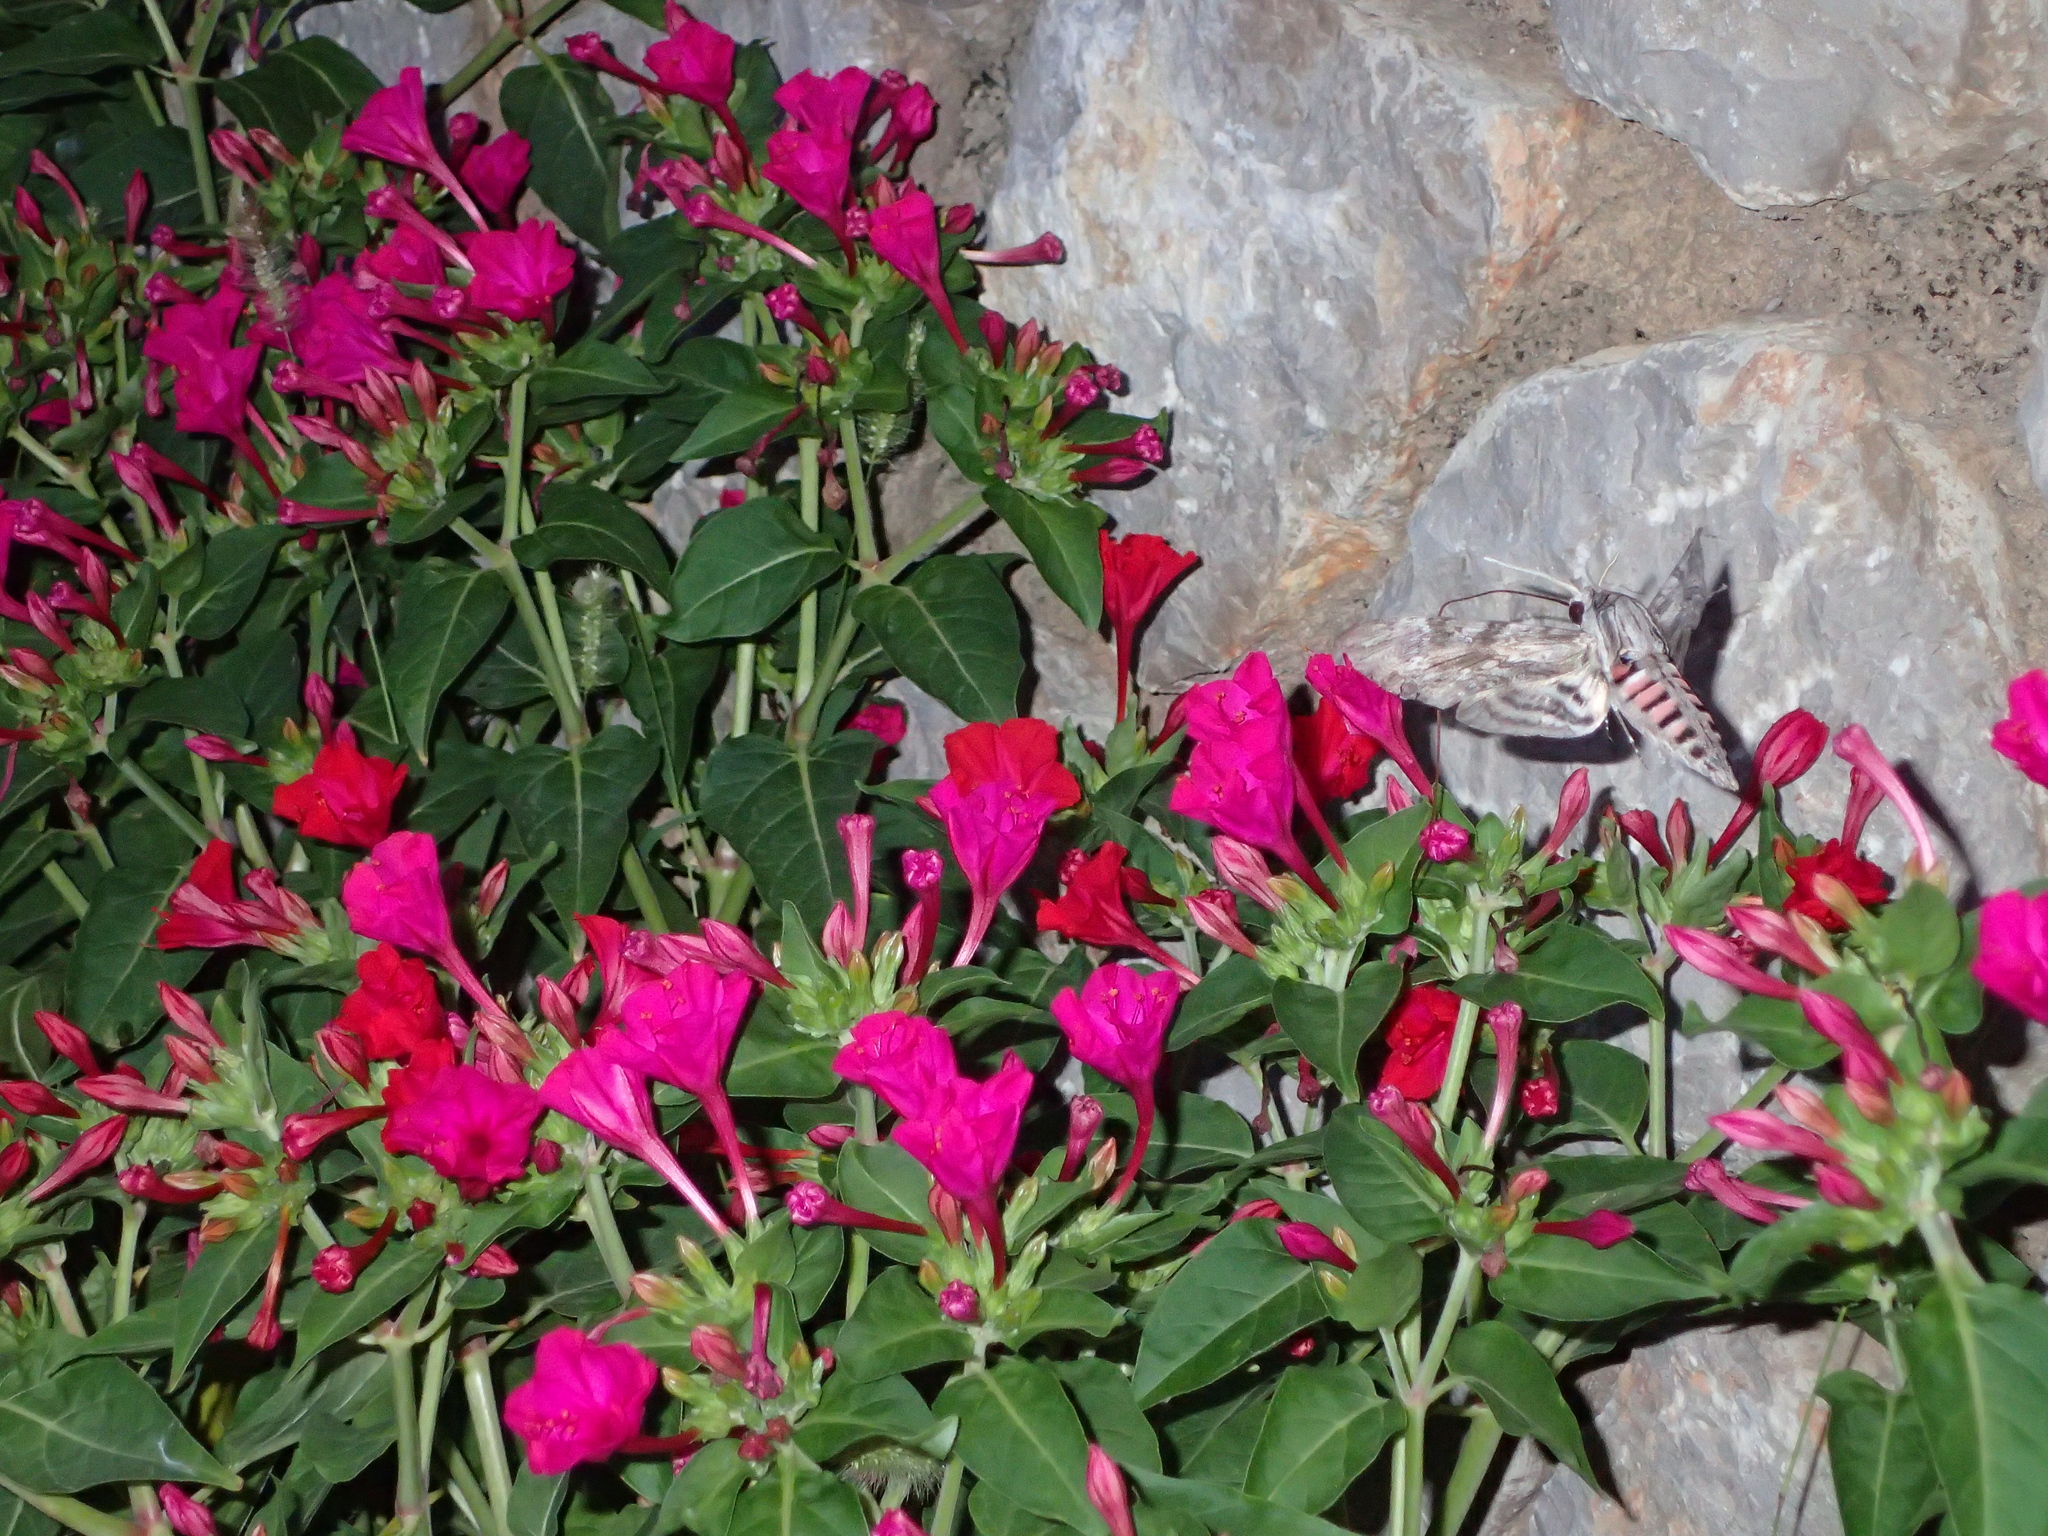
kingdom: Animalia
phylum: Arthropoda
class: Insecta
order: Lepidoptera
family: Sphingidae
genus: Agrius
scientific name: Agrius convolvuli
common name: Convolvulus hawkmoth
